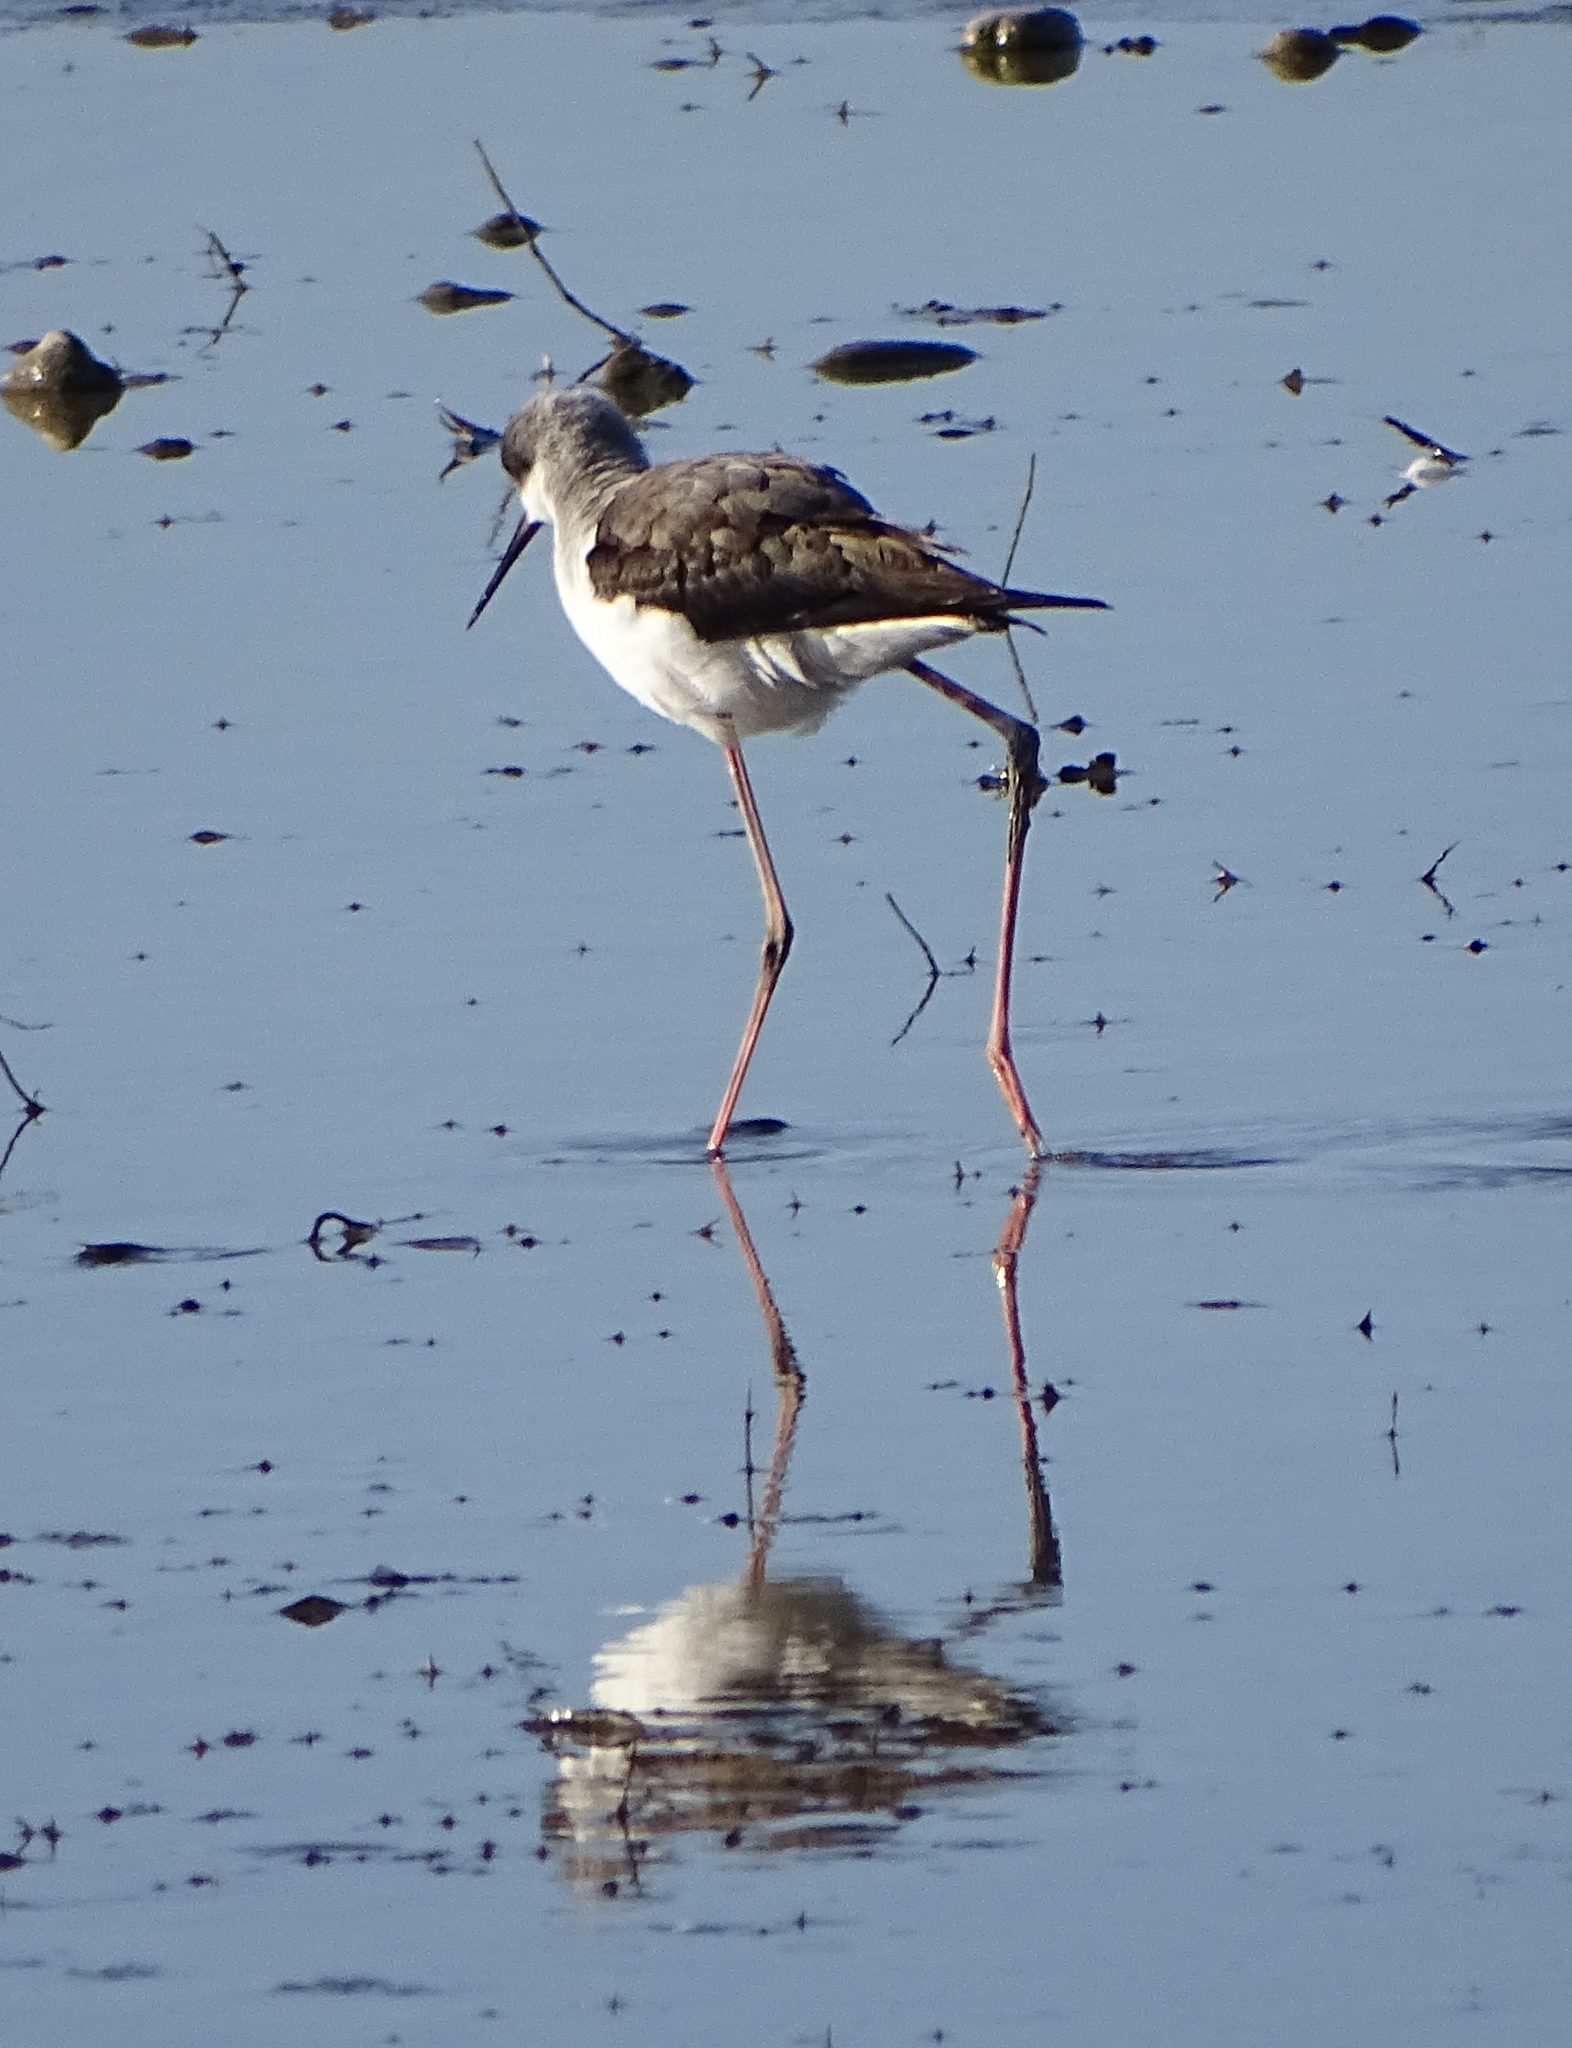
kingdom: Animalia
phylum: Chordata
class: Aves
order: Charadriiformes
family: Recurvirostridae
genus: Himantopus
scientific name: Himantopus himantopus
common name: Black-winged stilt
